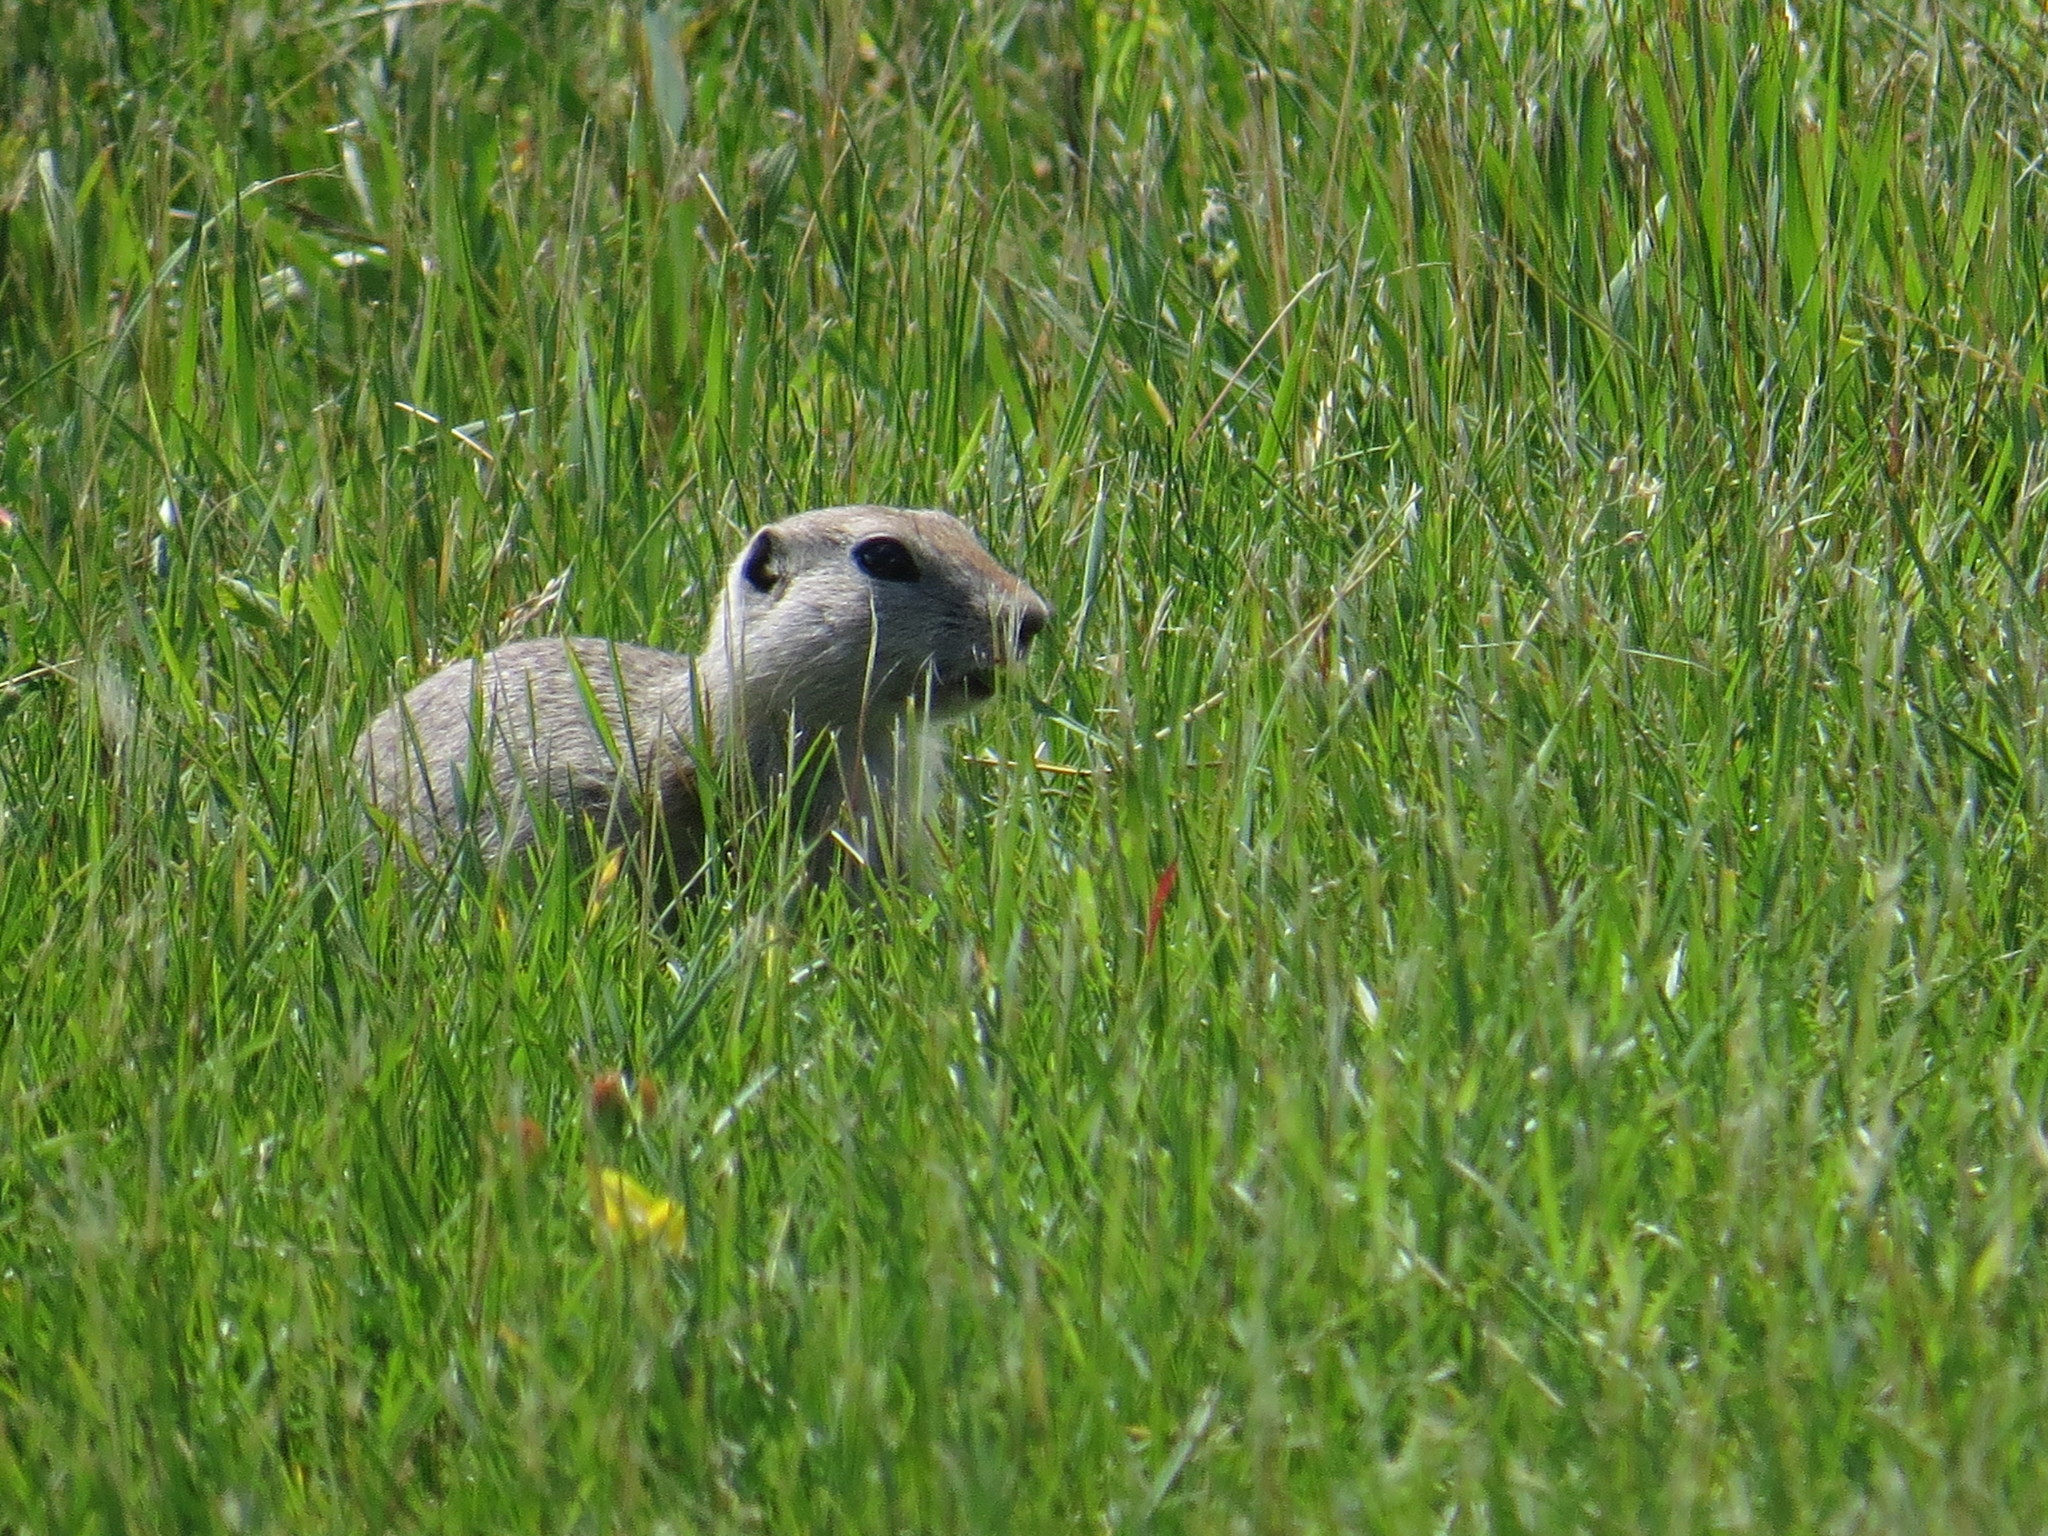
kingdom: Animalia
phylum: Chordata
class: Mammalia
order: Rodentia
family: Sciuridae
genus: Urocitellus
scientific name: Urocitellus richardsonii
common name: Richardson's ground squirrel
